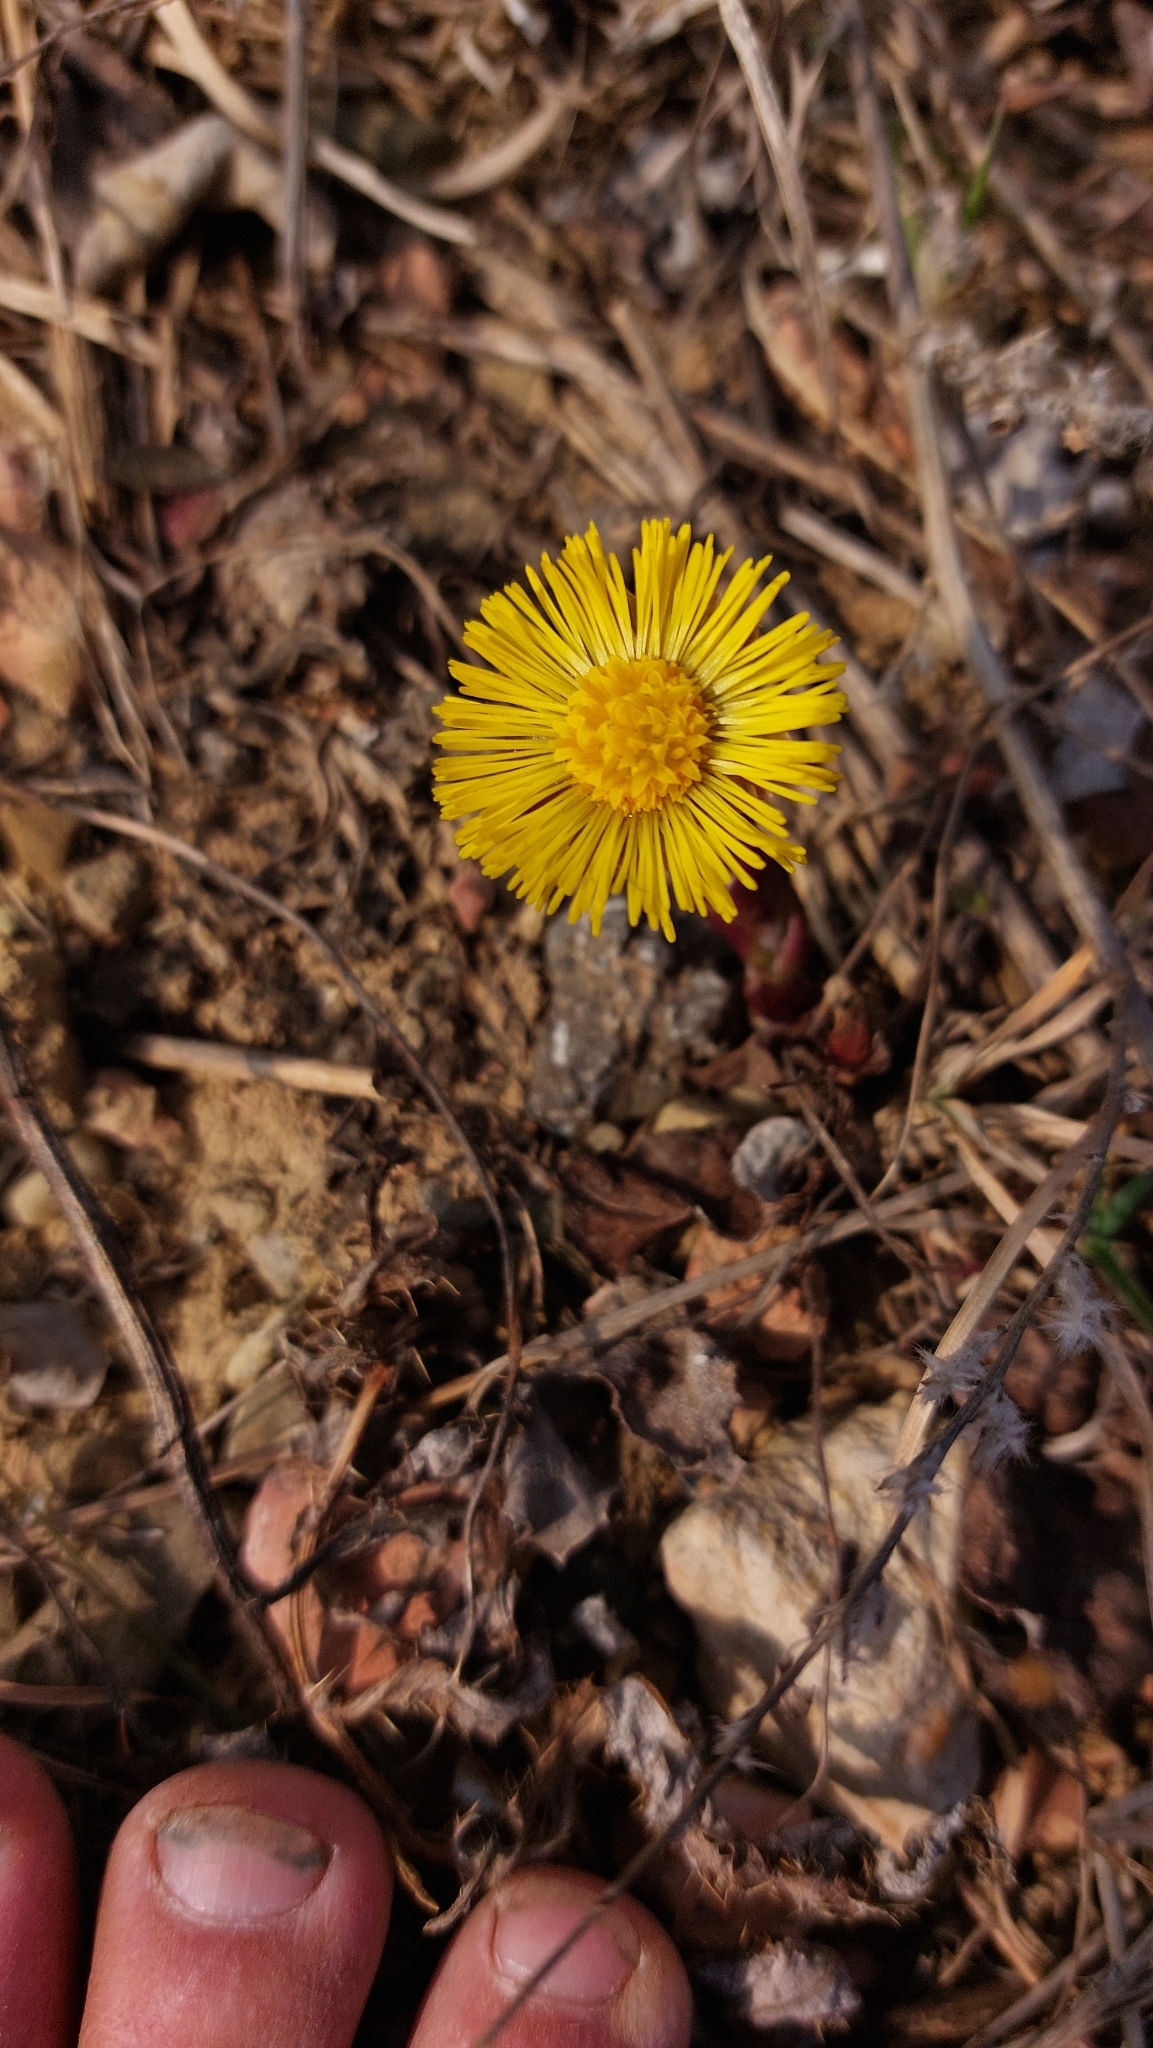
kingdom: Plantae
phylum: Tracheophyta
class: Magnoliopsida
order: Asterales
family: Asteraceae
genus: Tussilago
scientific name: Tussilago farfara
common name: Coltsfoot
